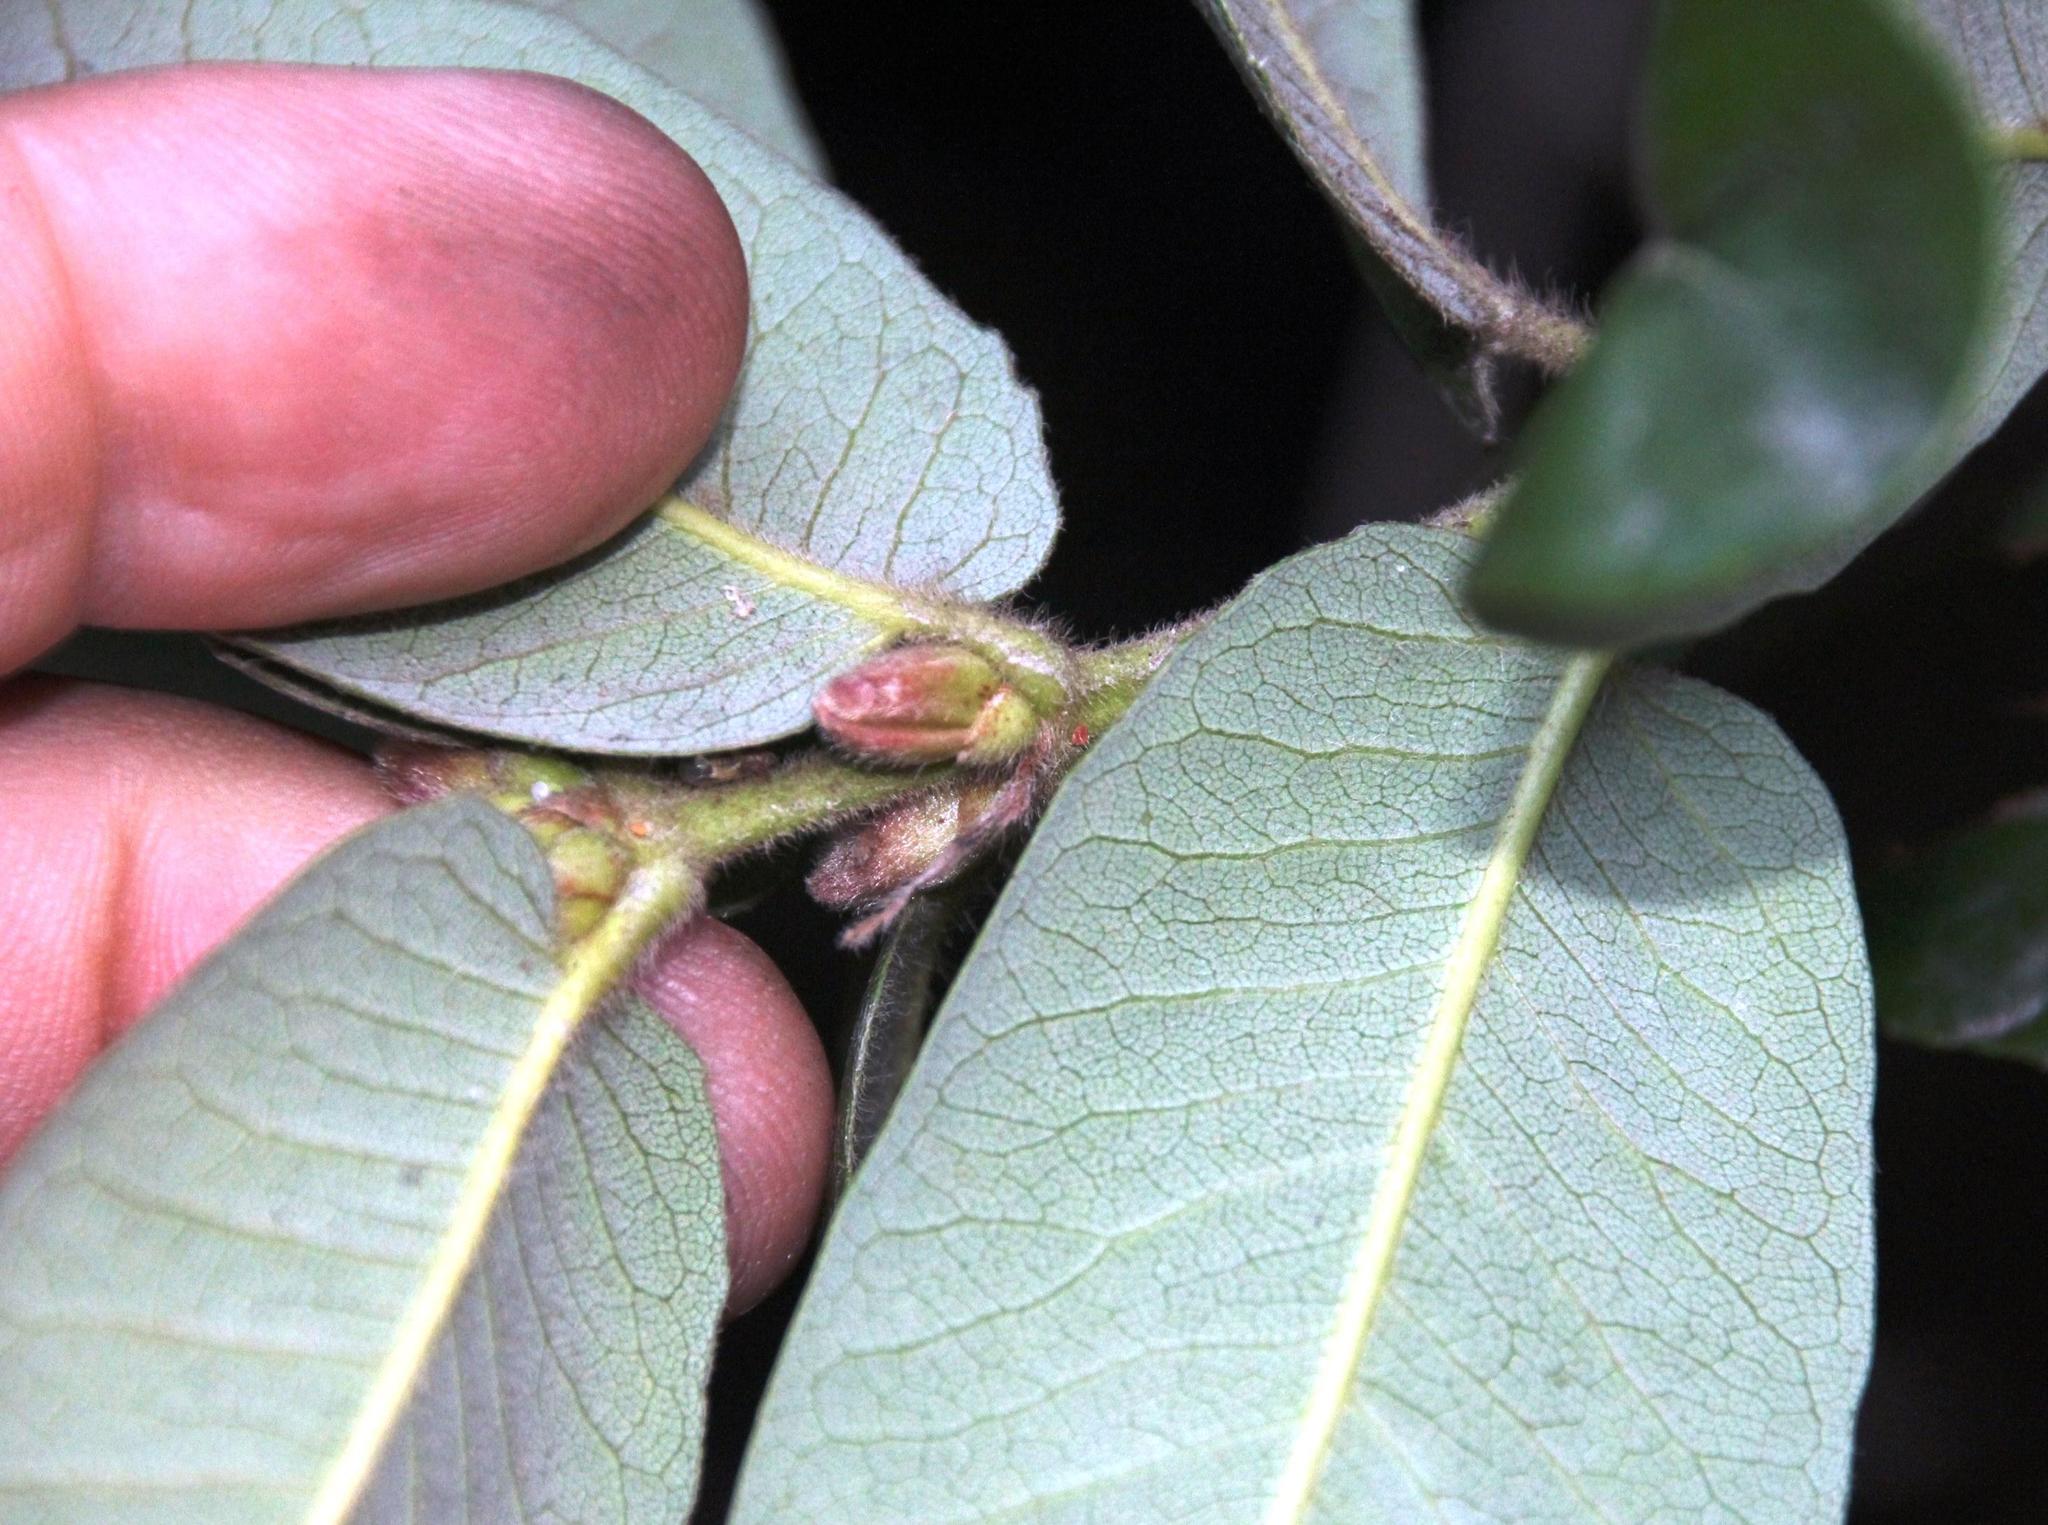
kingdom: Plantae
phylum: Tracheophyta
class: Magnoliopsida
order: Oxalidales
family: Cunoniaceae
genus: Eucryphia
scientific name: Eucryphia cordifolia
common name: Ulmo
